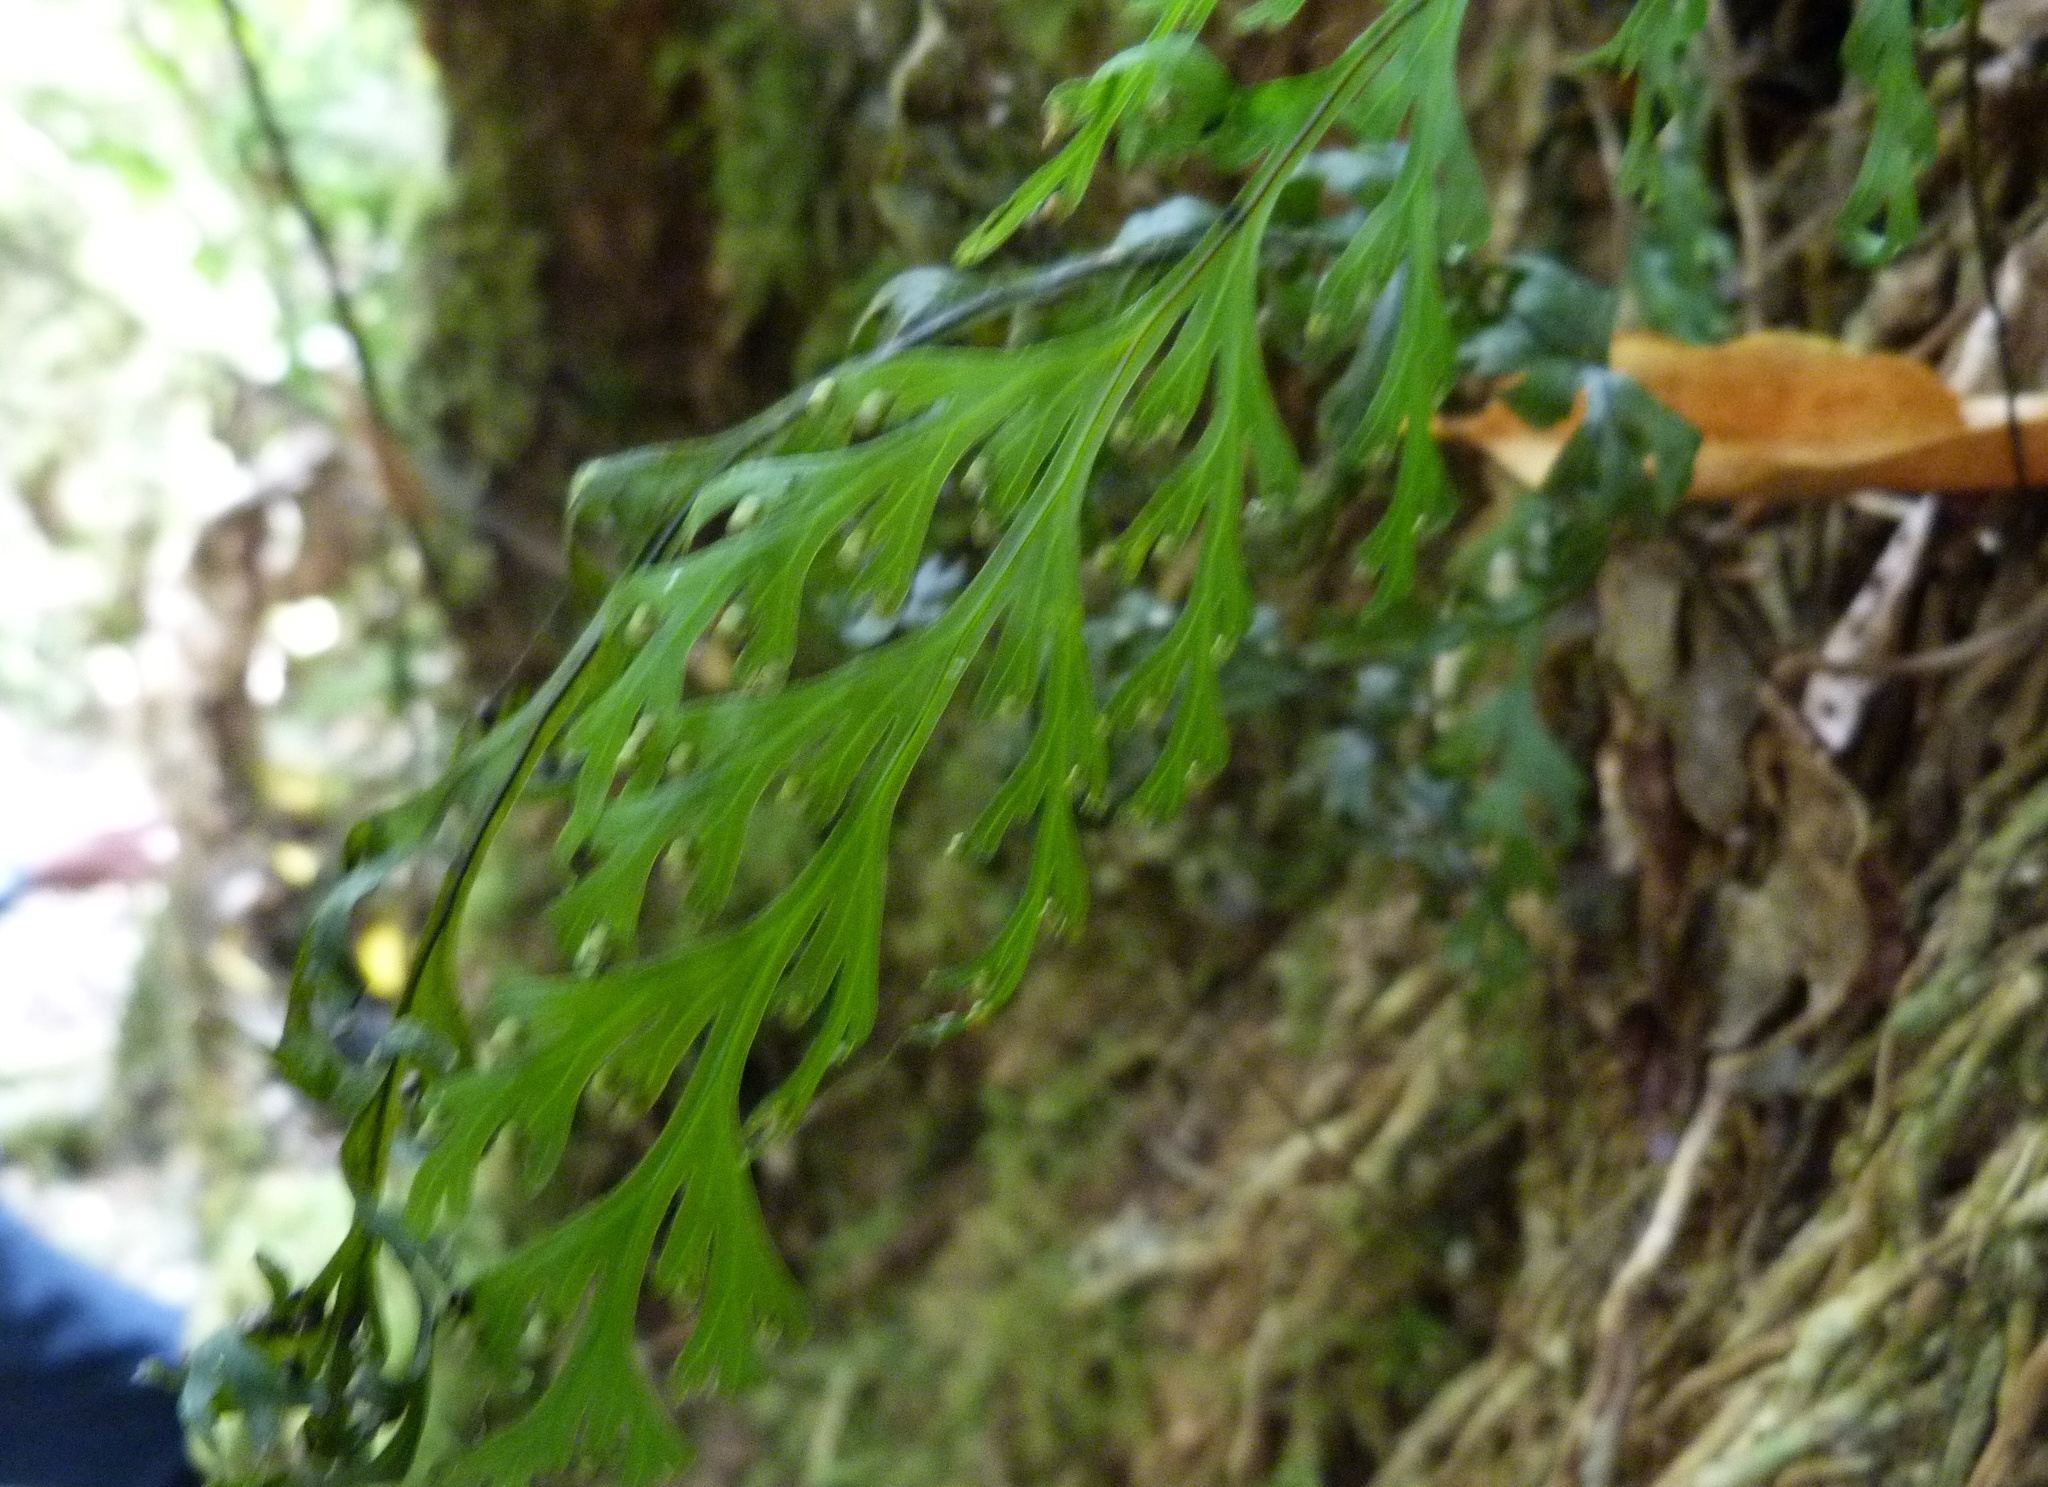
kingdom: Plantae
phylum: Tracheophyta
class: Polypodiopsida
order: Hymenophyllales
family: Hymenophyllaceae
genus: Hymenophyllum
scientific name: Hymenophyllum dilatatum
